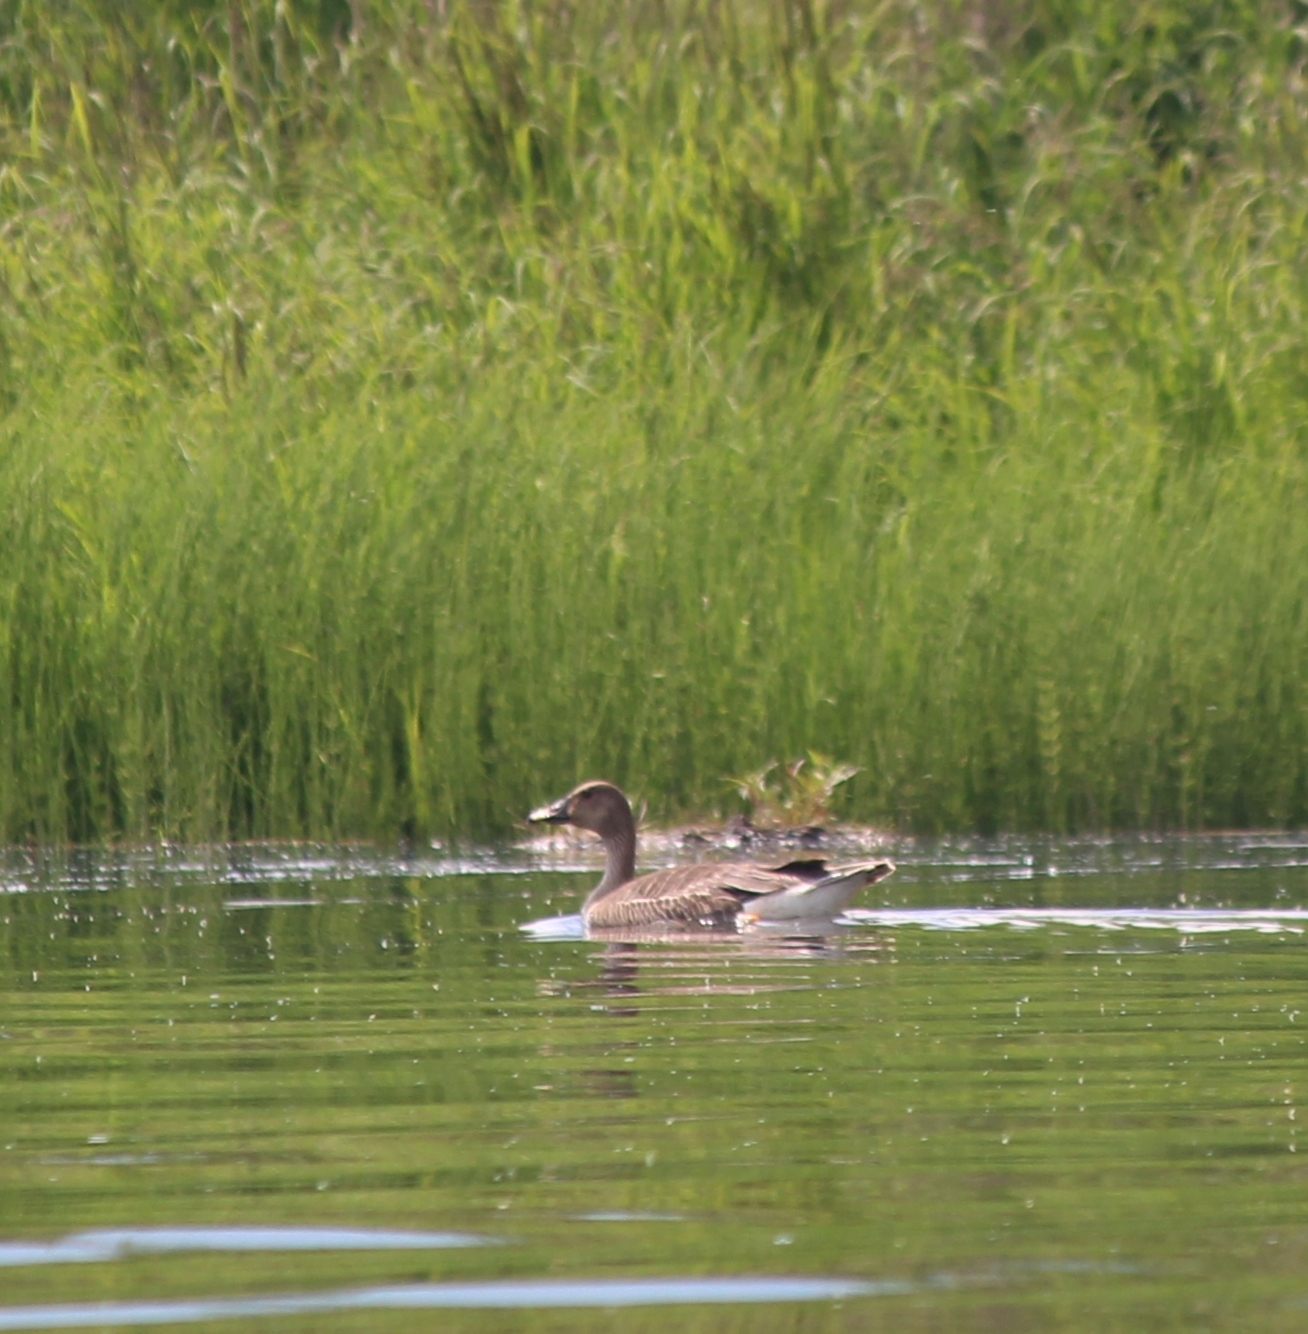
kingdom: Animalia
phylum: Chordata
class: Aves
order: Anseriformes
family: Anatidae
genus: Anser
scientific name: Anser fabalis
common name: Bean goose
